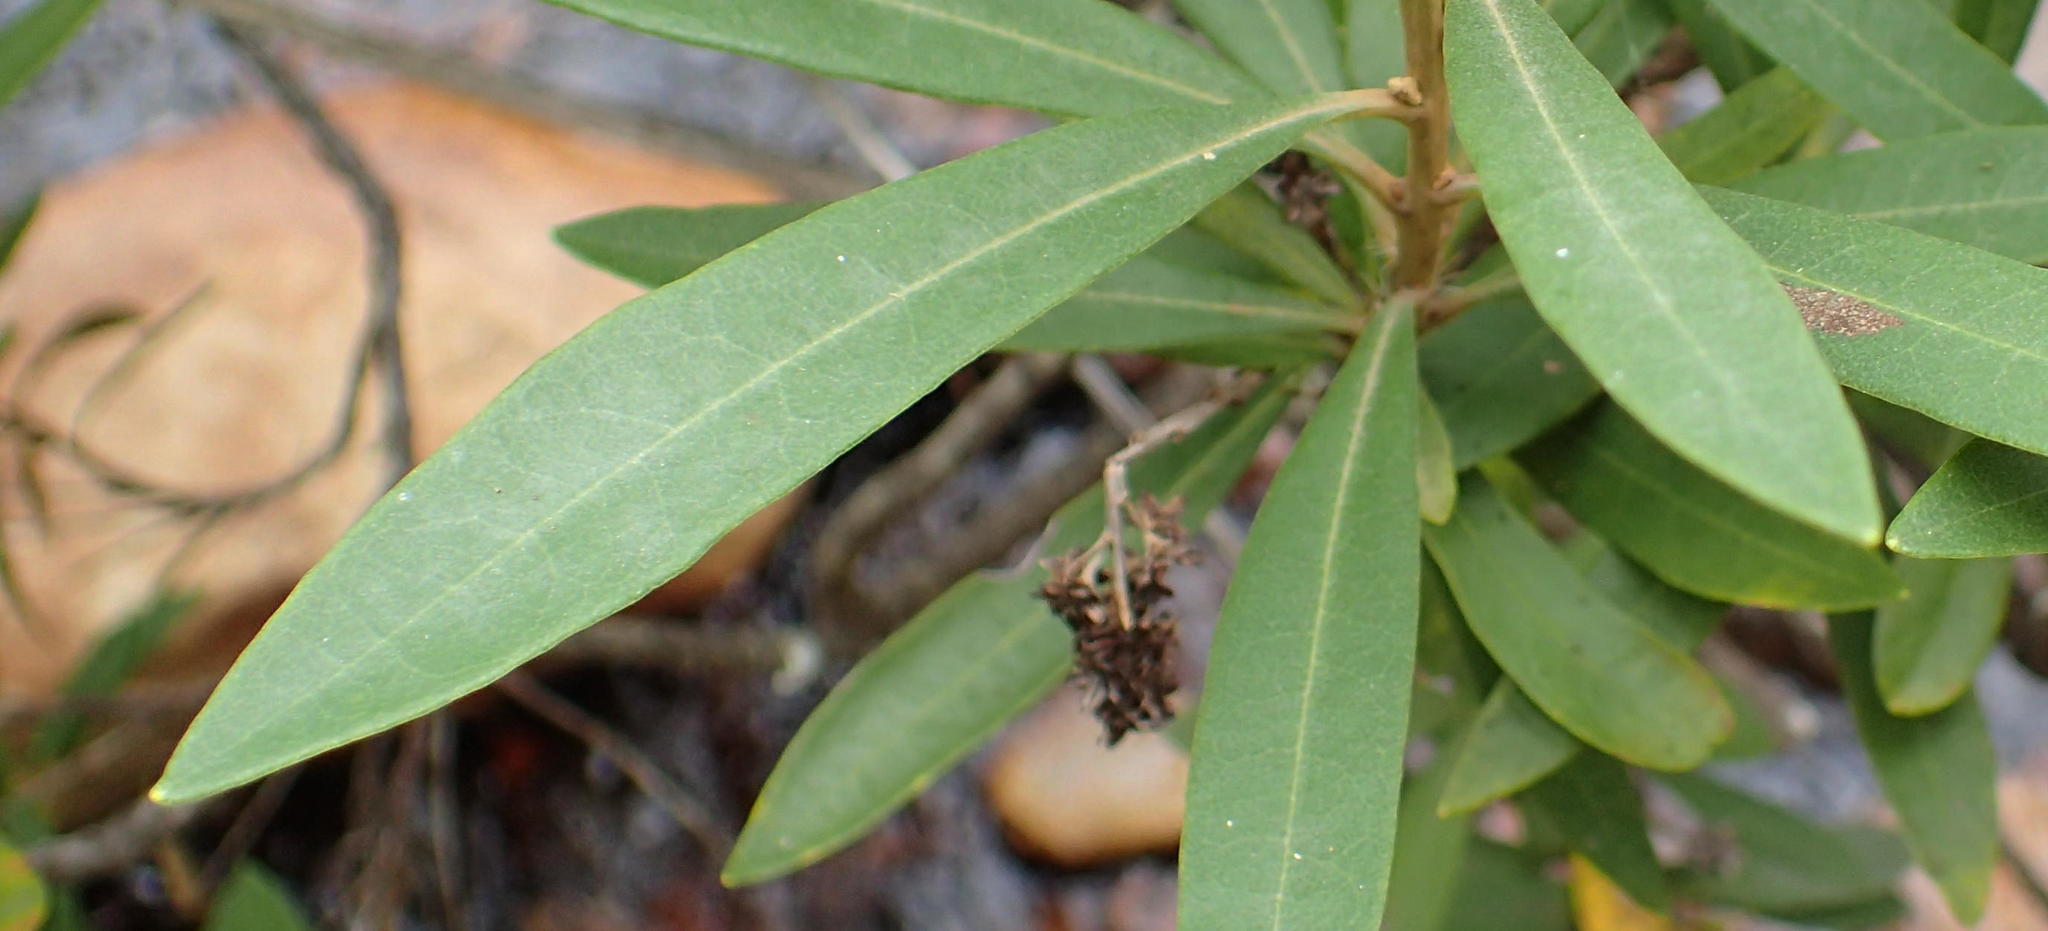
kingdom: Plantae
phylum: Tracheophyta
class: Magnoliopsida
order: Asterales
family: Asteraceae
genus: Brachylaena
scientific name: Brachylaena neriifolia
